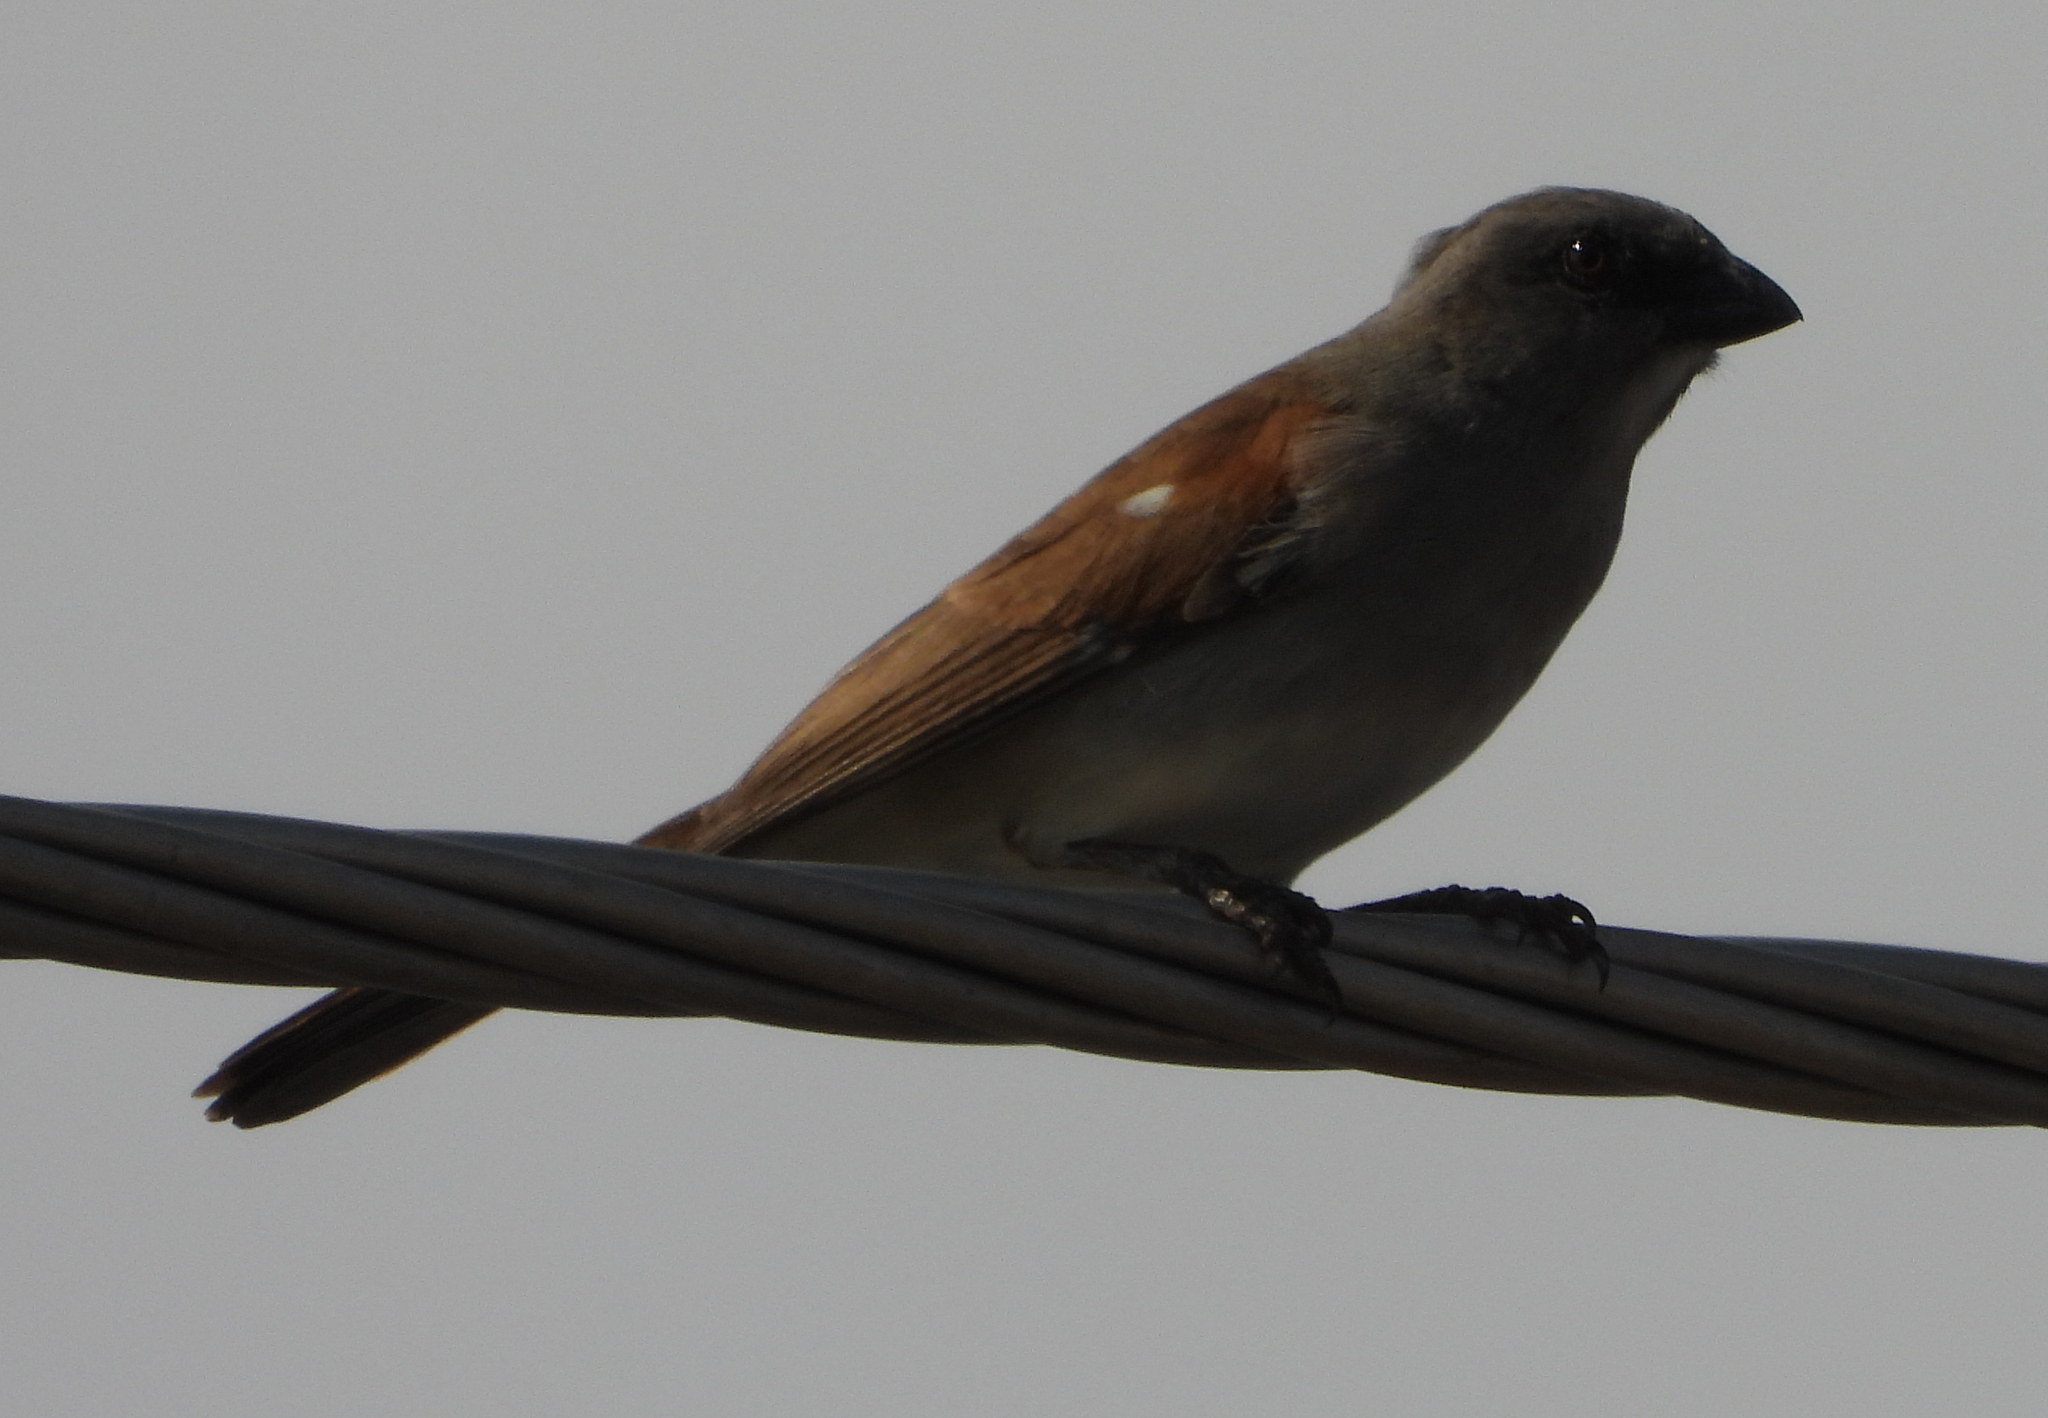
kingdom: Animalia
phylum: Chordata
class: Aves
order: Passeriformes
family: Passeridae
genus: Passer
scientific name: Passer griseus
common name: Northern grey-headed sparrow
